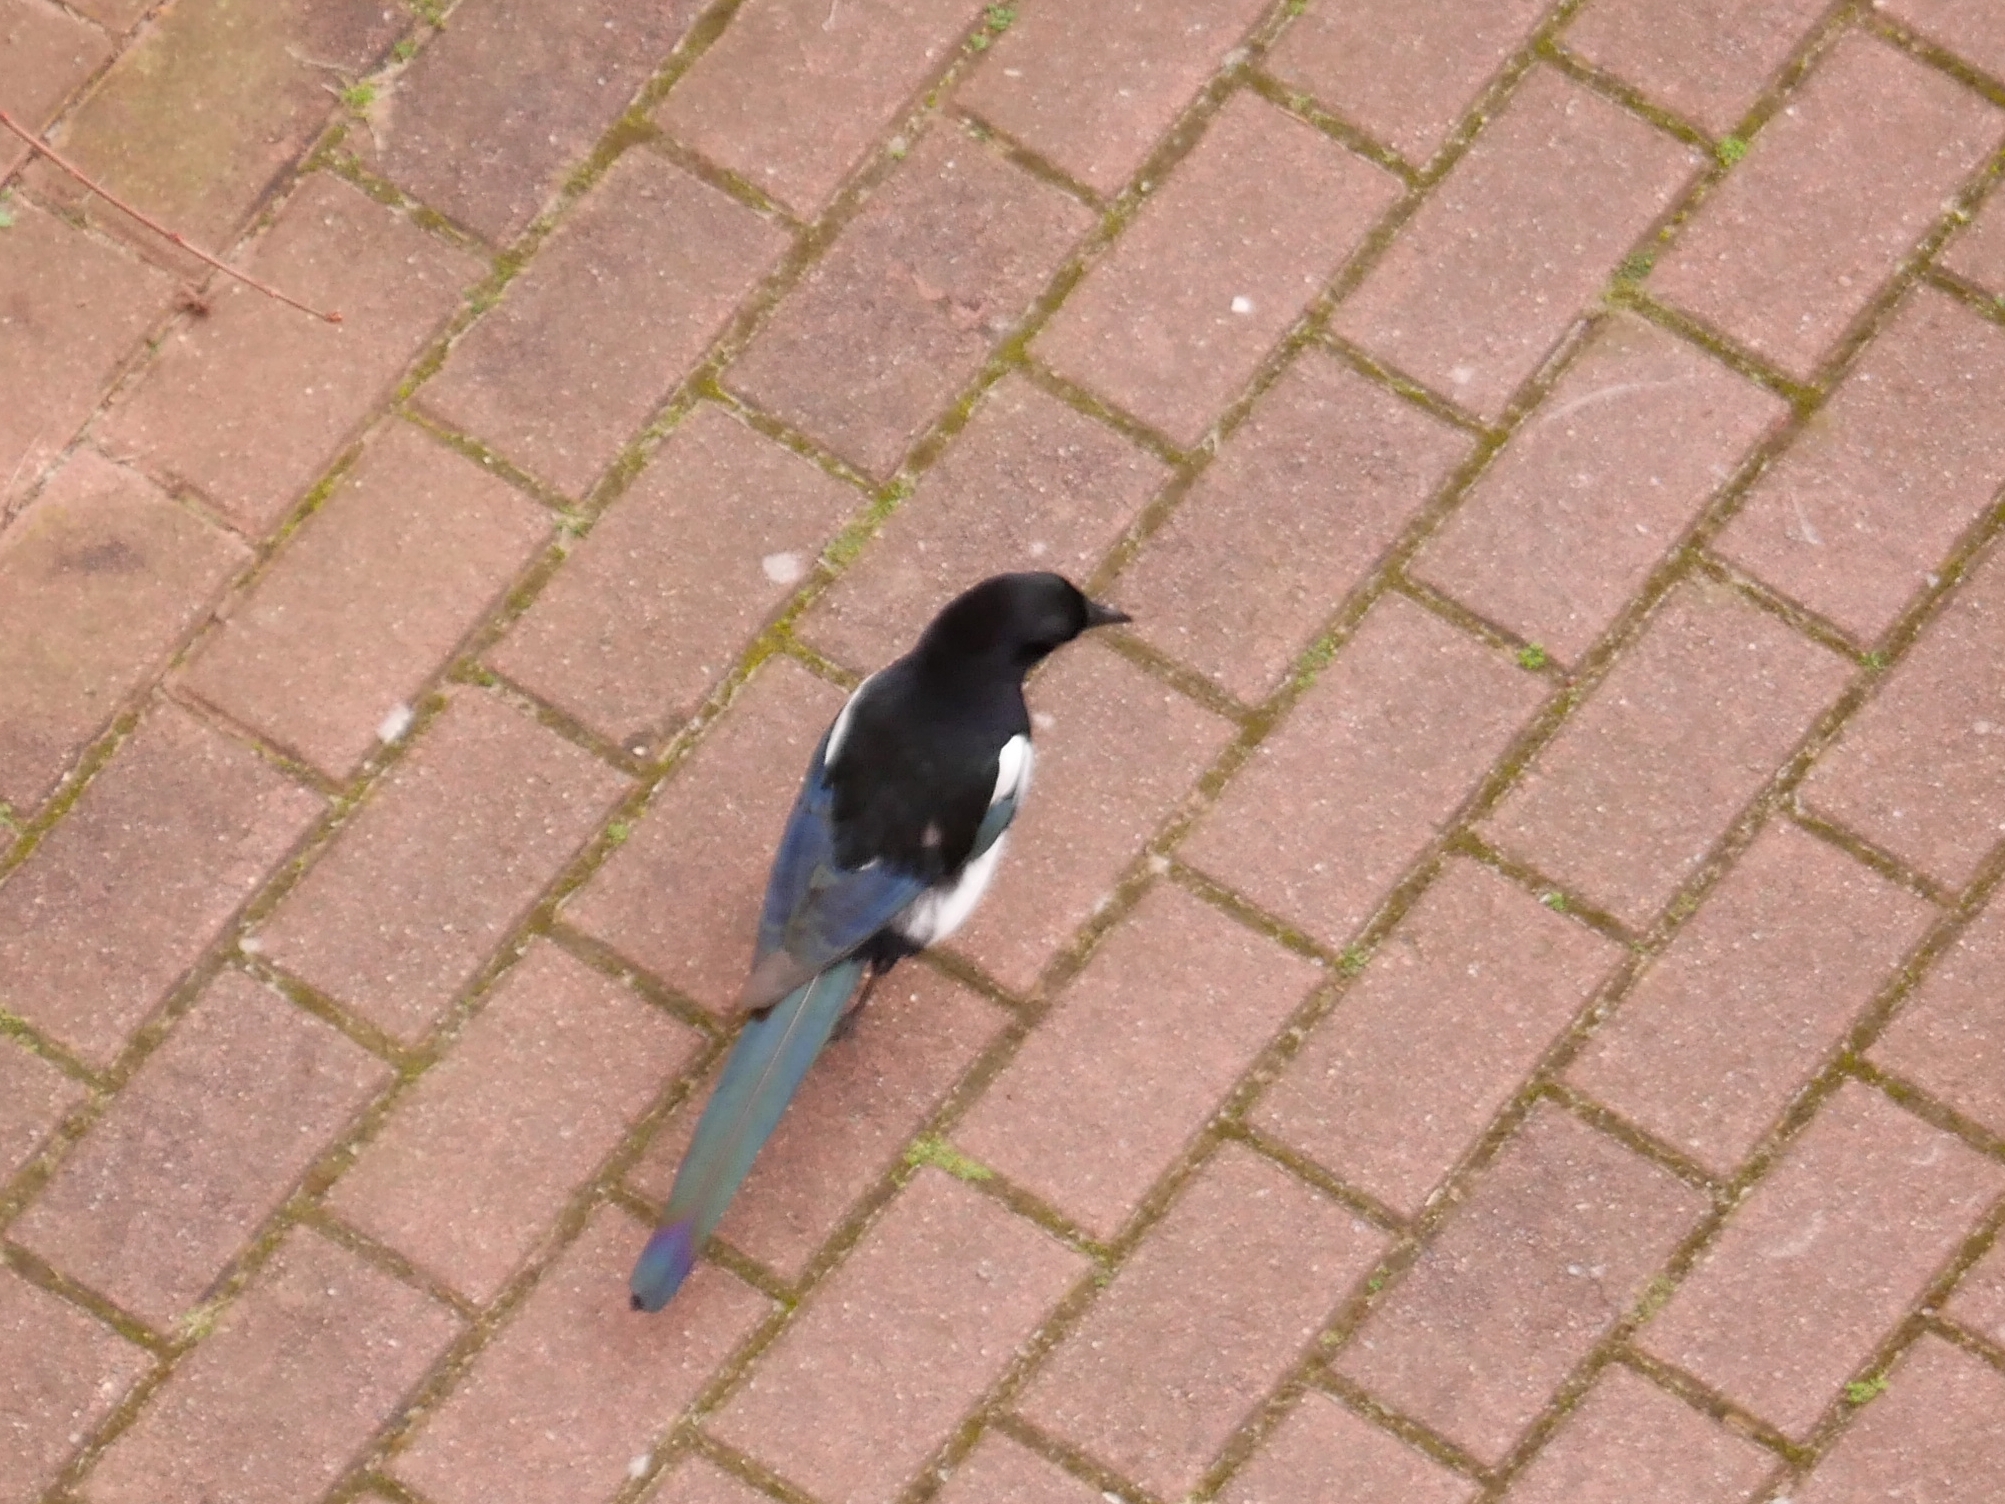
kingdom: Animalia
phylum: Chordata
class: Aves
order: Passeriformes
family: Corvidae
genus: Pica
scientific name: Pica pica
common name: Eurasian magpie
